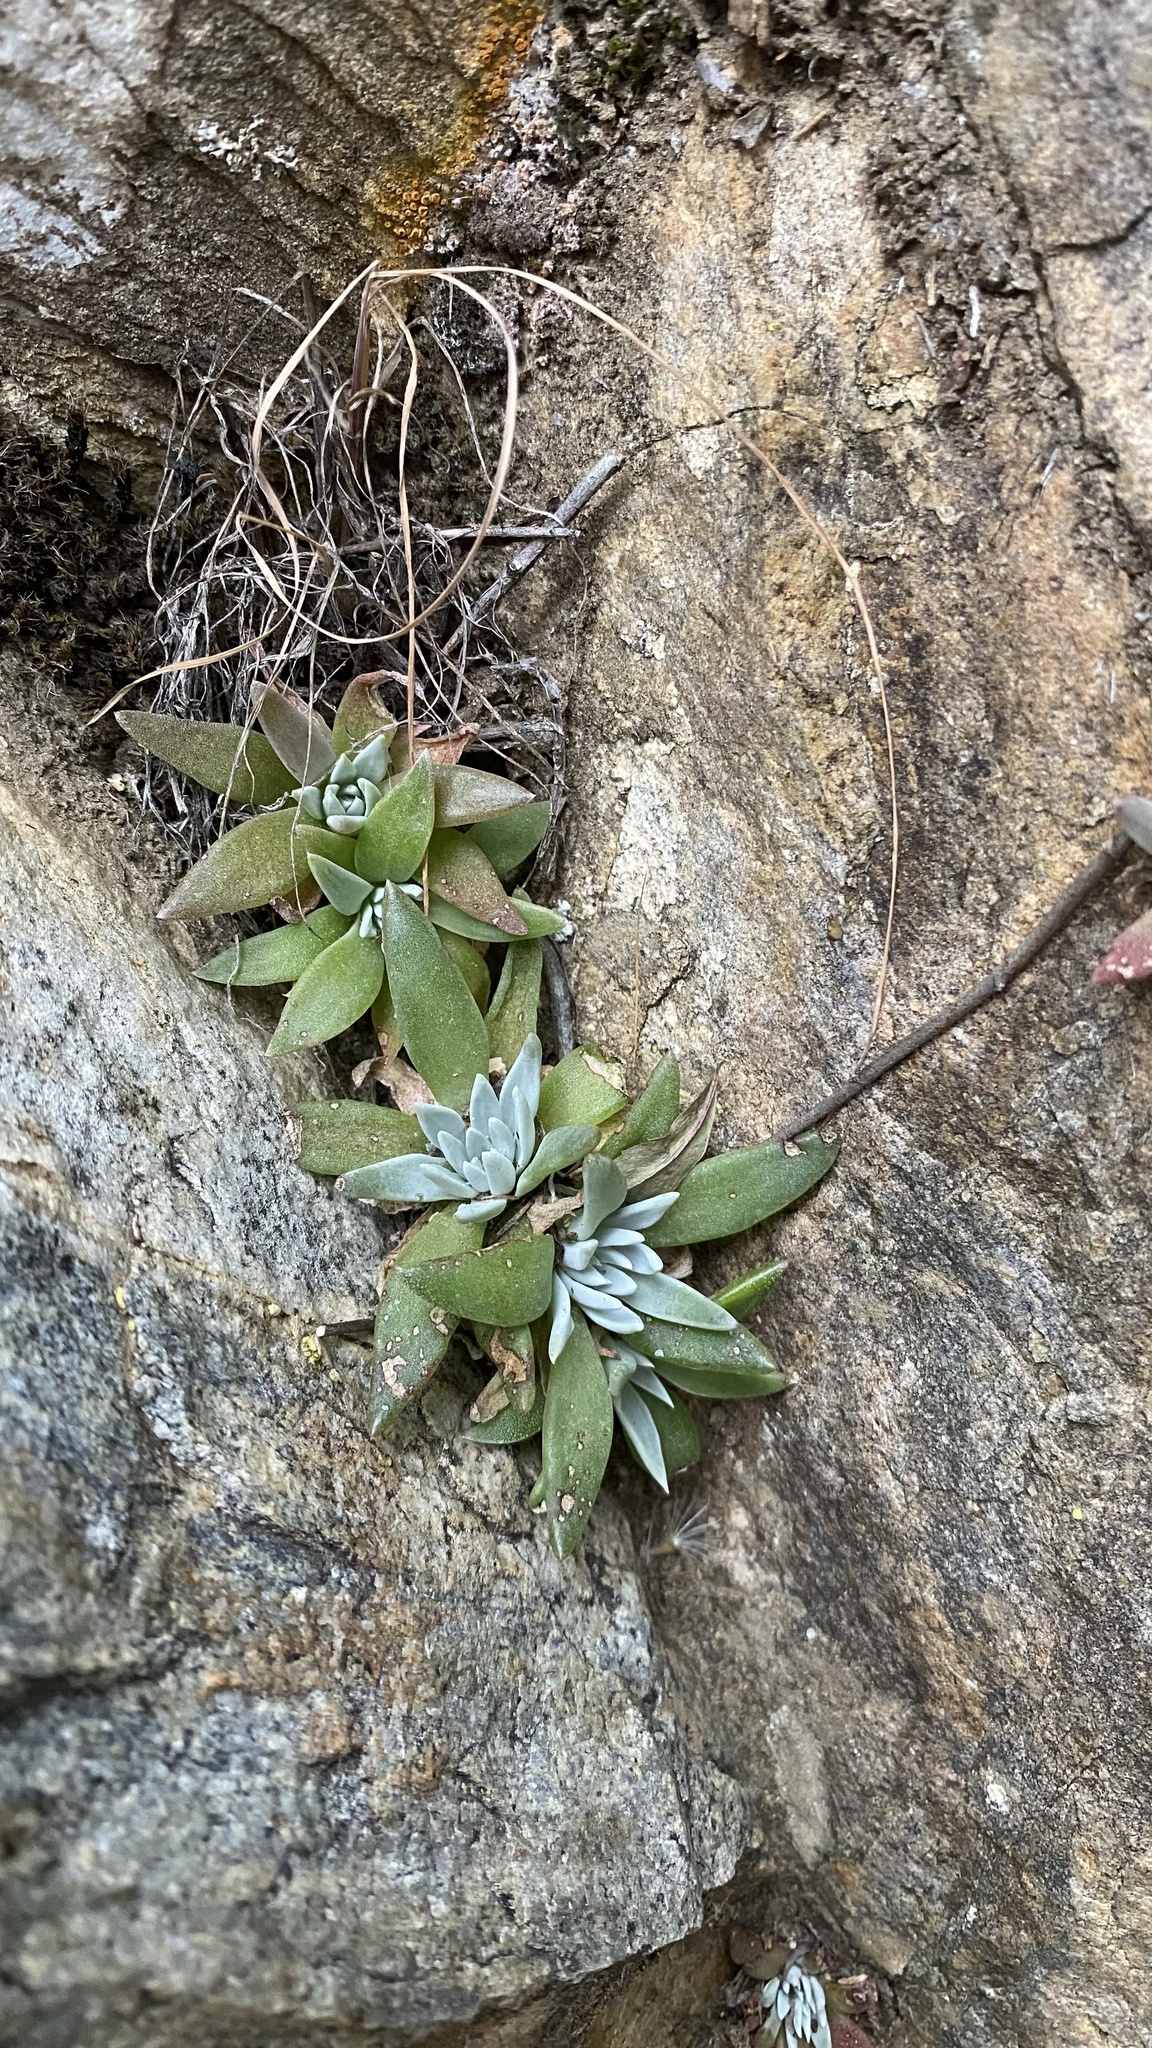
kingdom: Plantae
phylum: Tracheophyta
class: Magnoliopsida
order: Saxifragales
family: Crassulaceae
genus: Dudleya
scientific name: Dudleya abramsii
